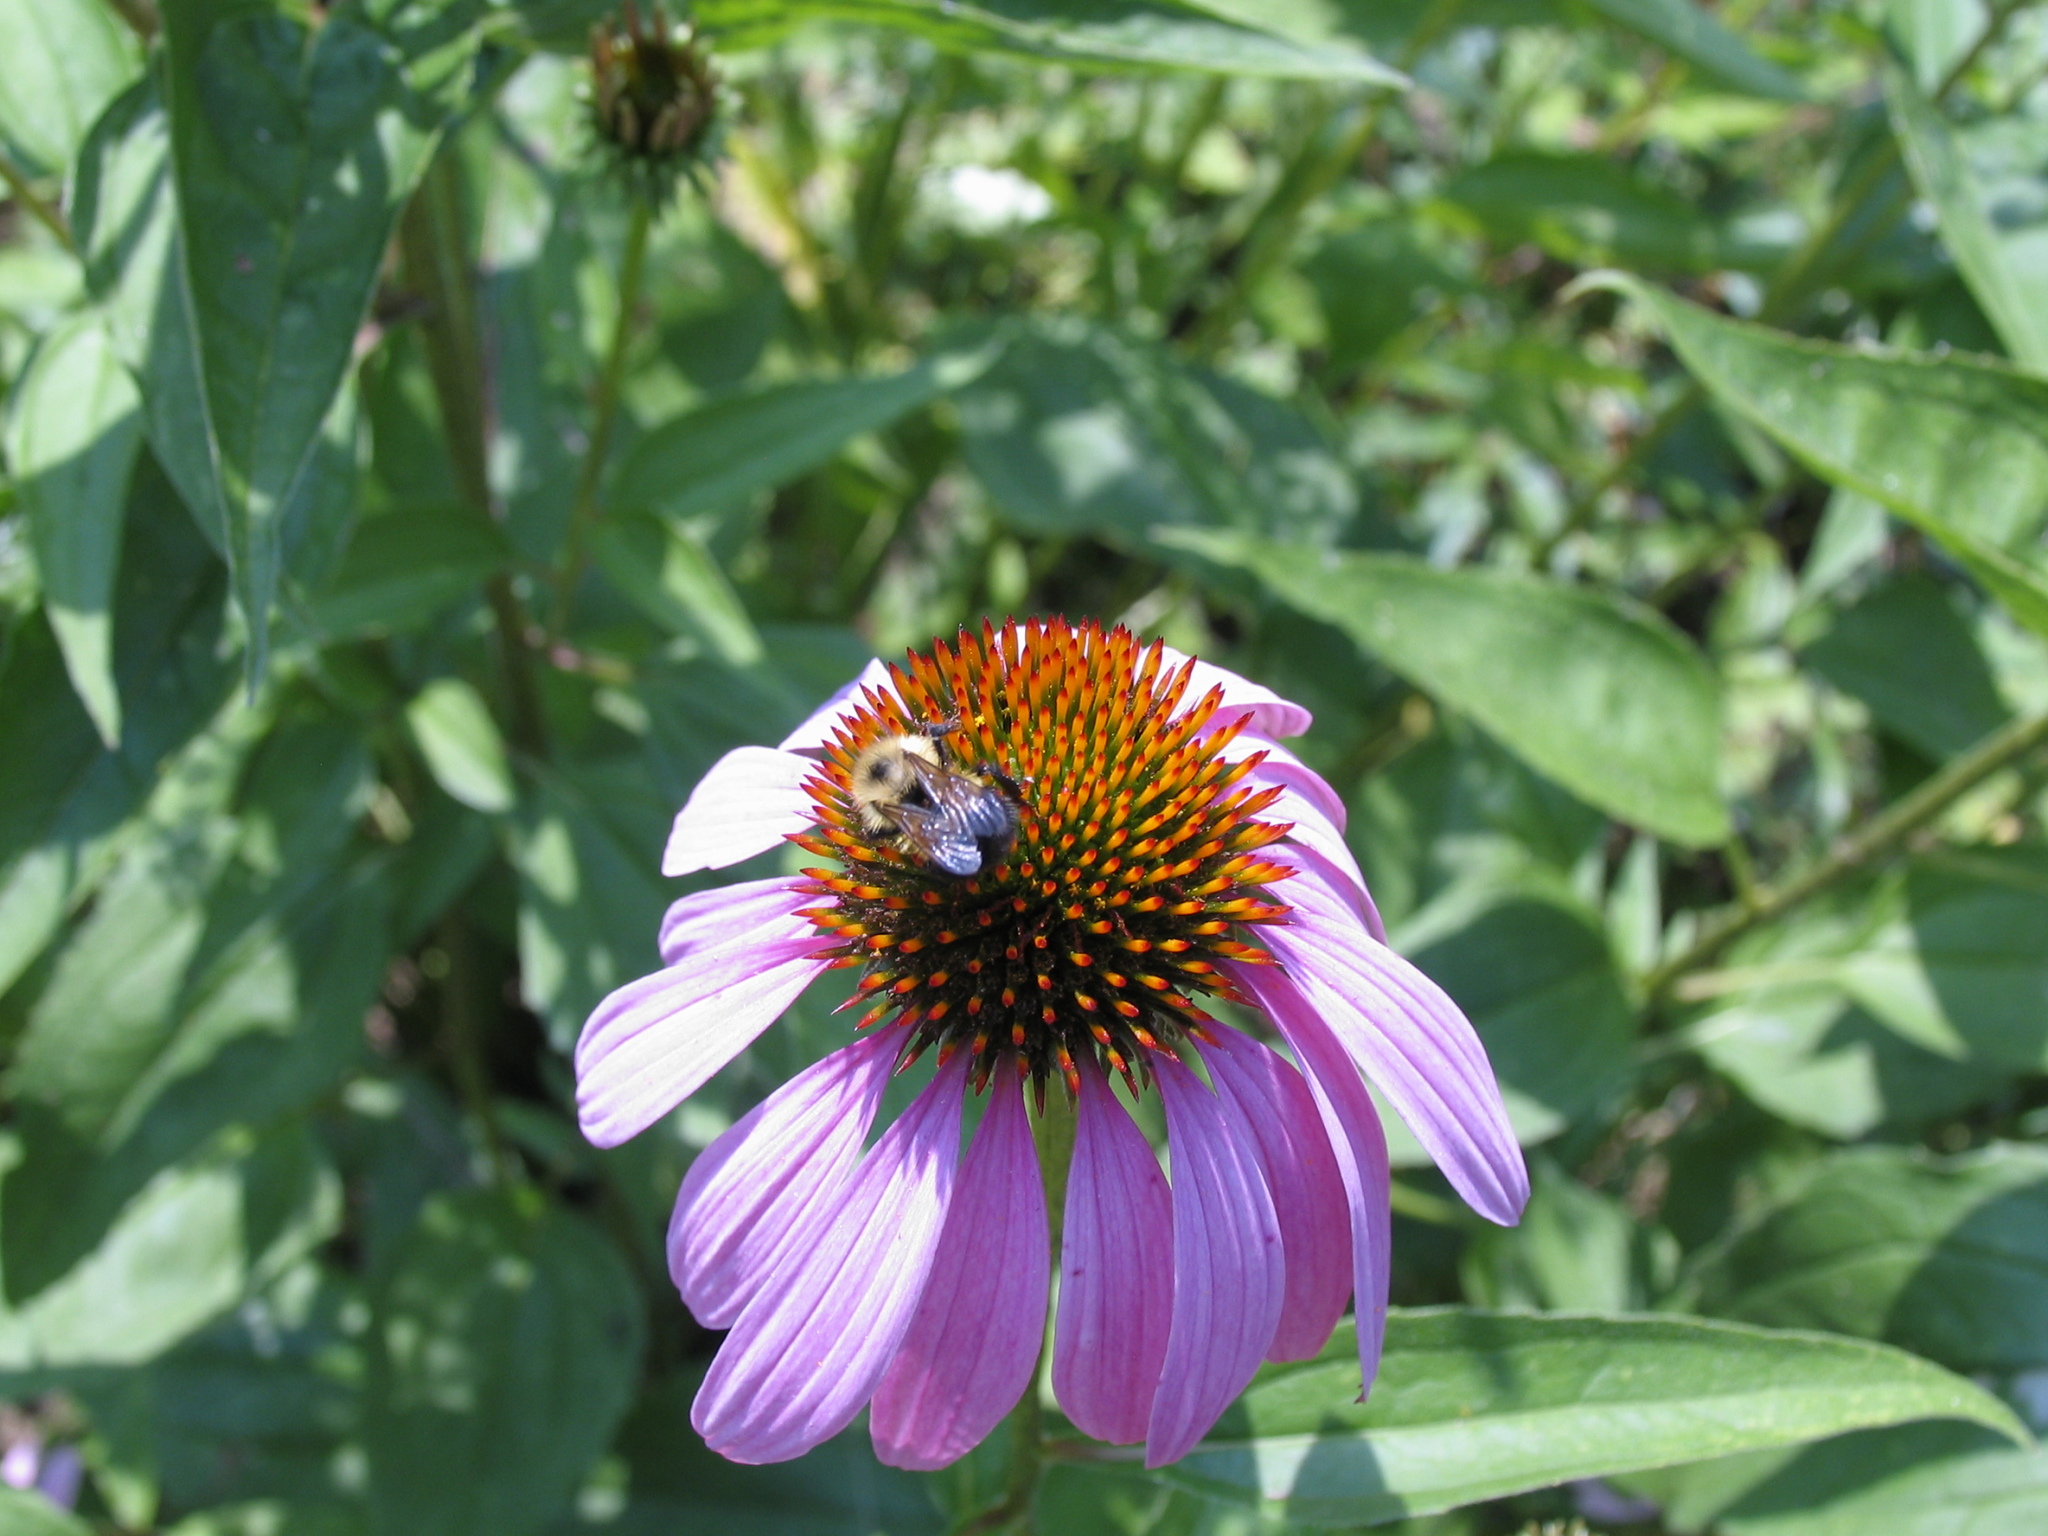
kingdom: Animalia
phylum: Arthropoda
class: Insecta
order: Hymenoptera
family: Apidae
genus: Pyrobombus
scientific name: Pyrobombus
